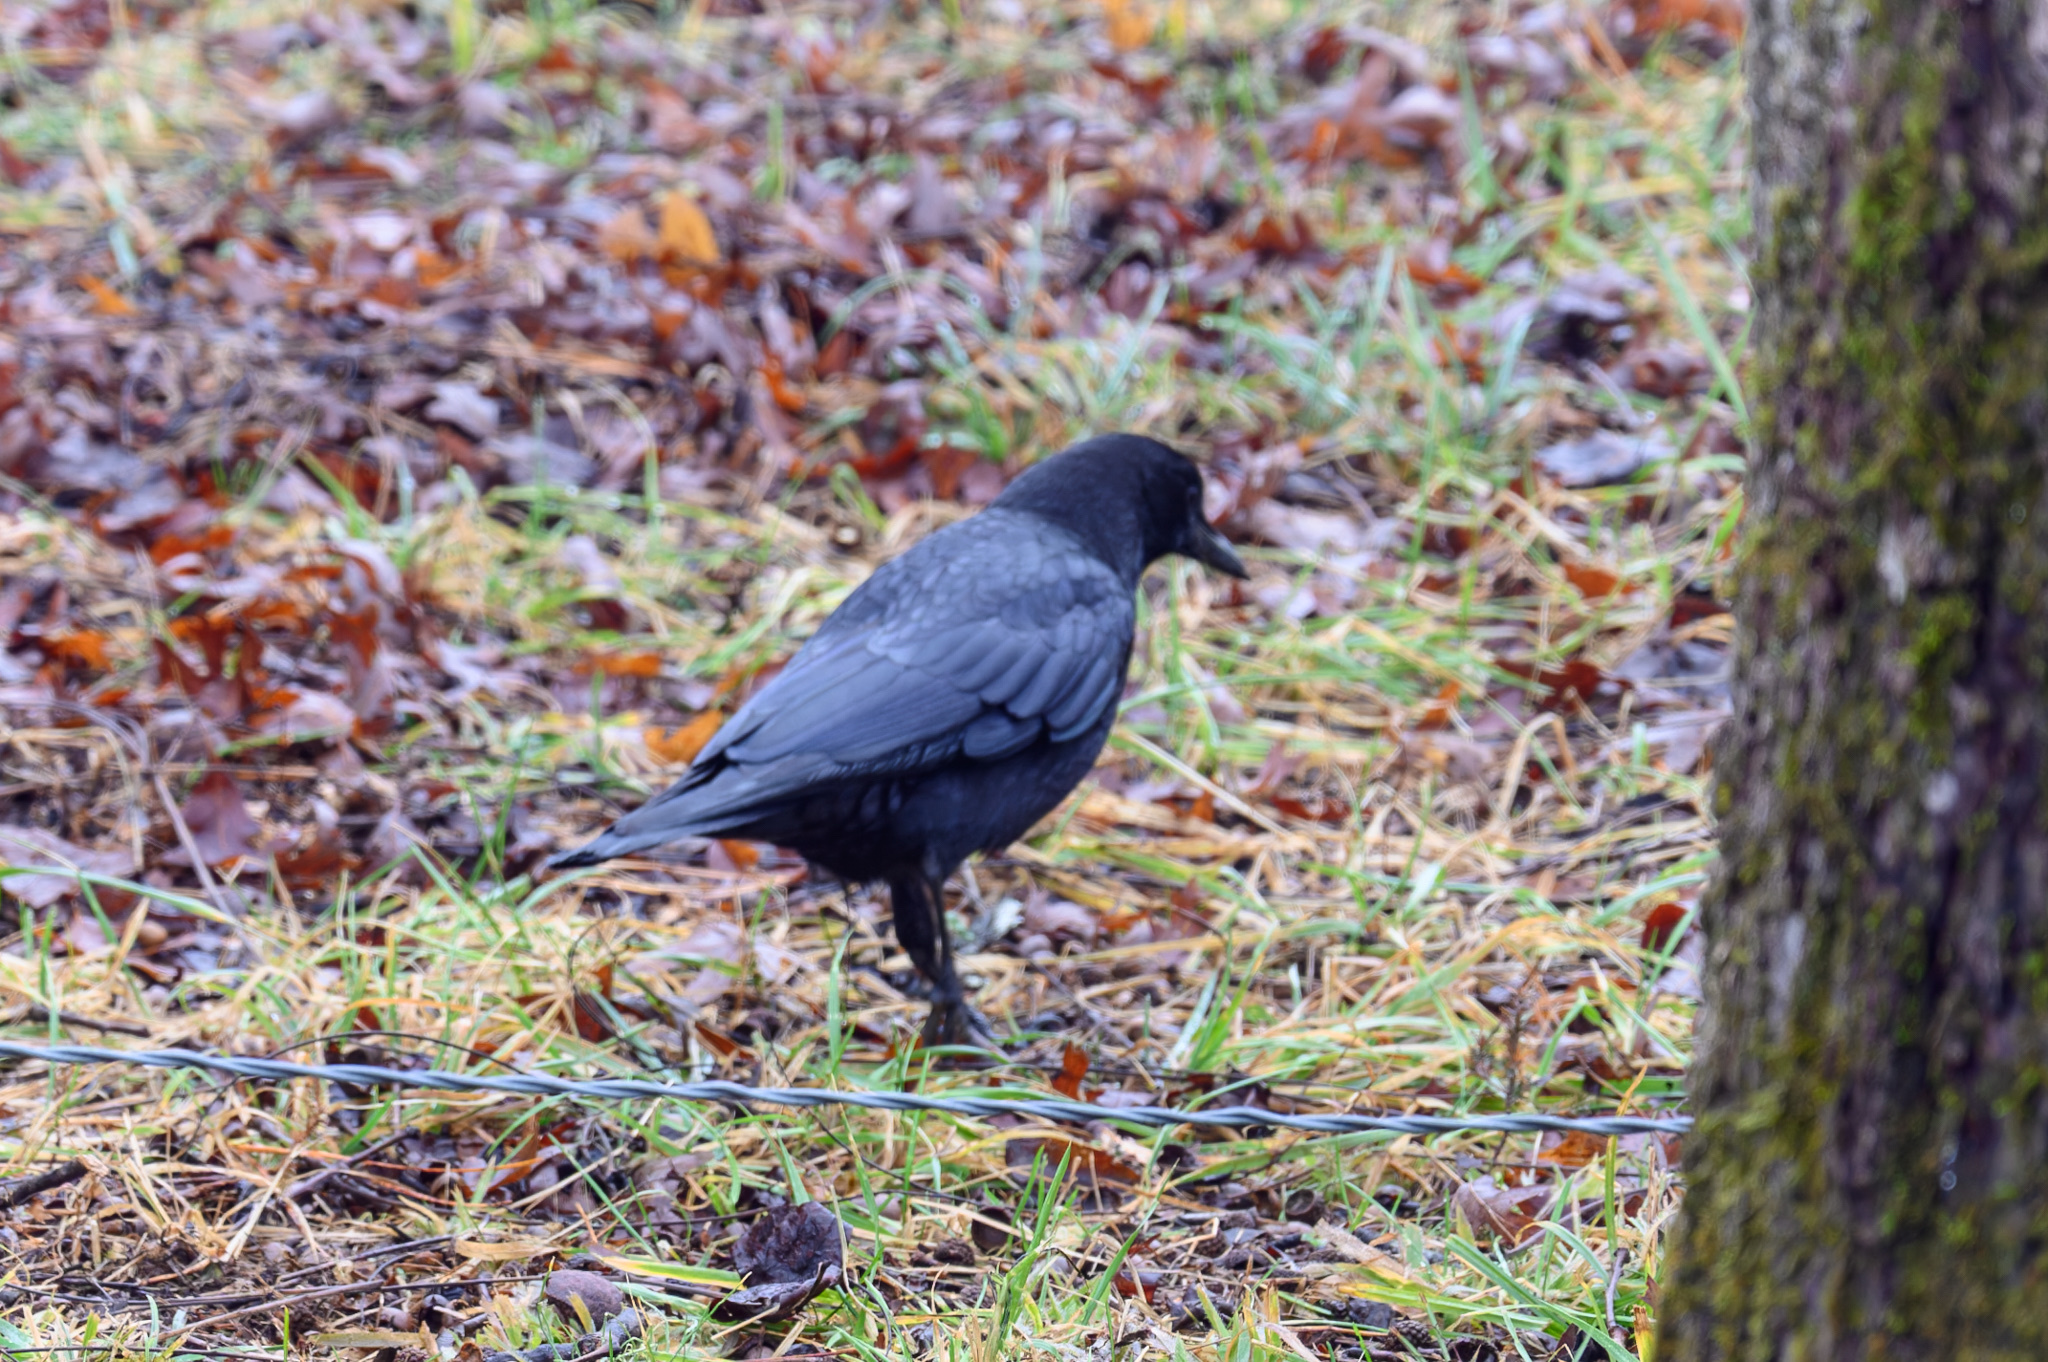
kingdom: Animalia
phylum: Chordata
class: Aves
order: Passeriformes
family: Corvidae
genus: Corvus
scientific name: Corvus brachyrhynchos
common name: American crow
